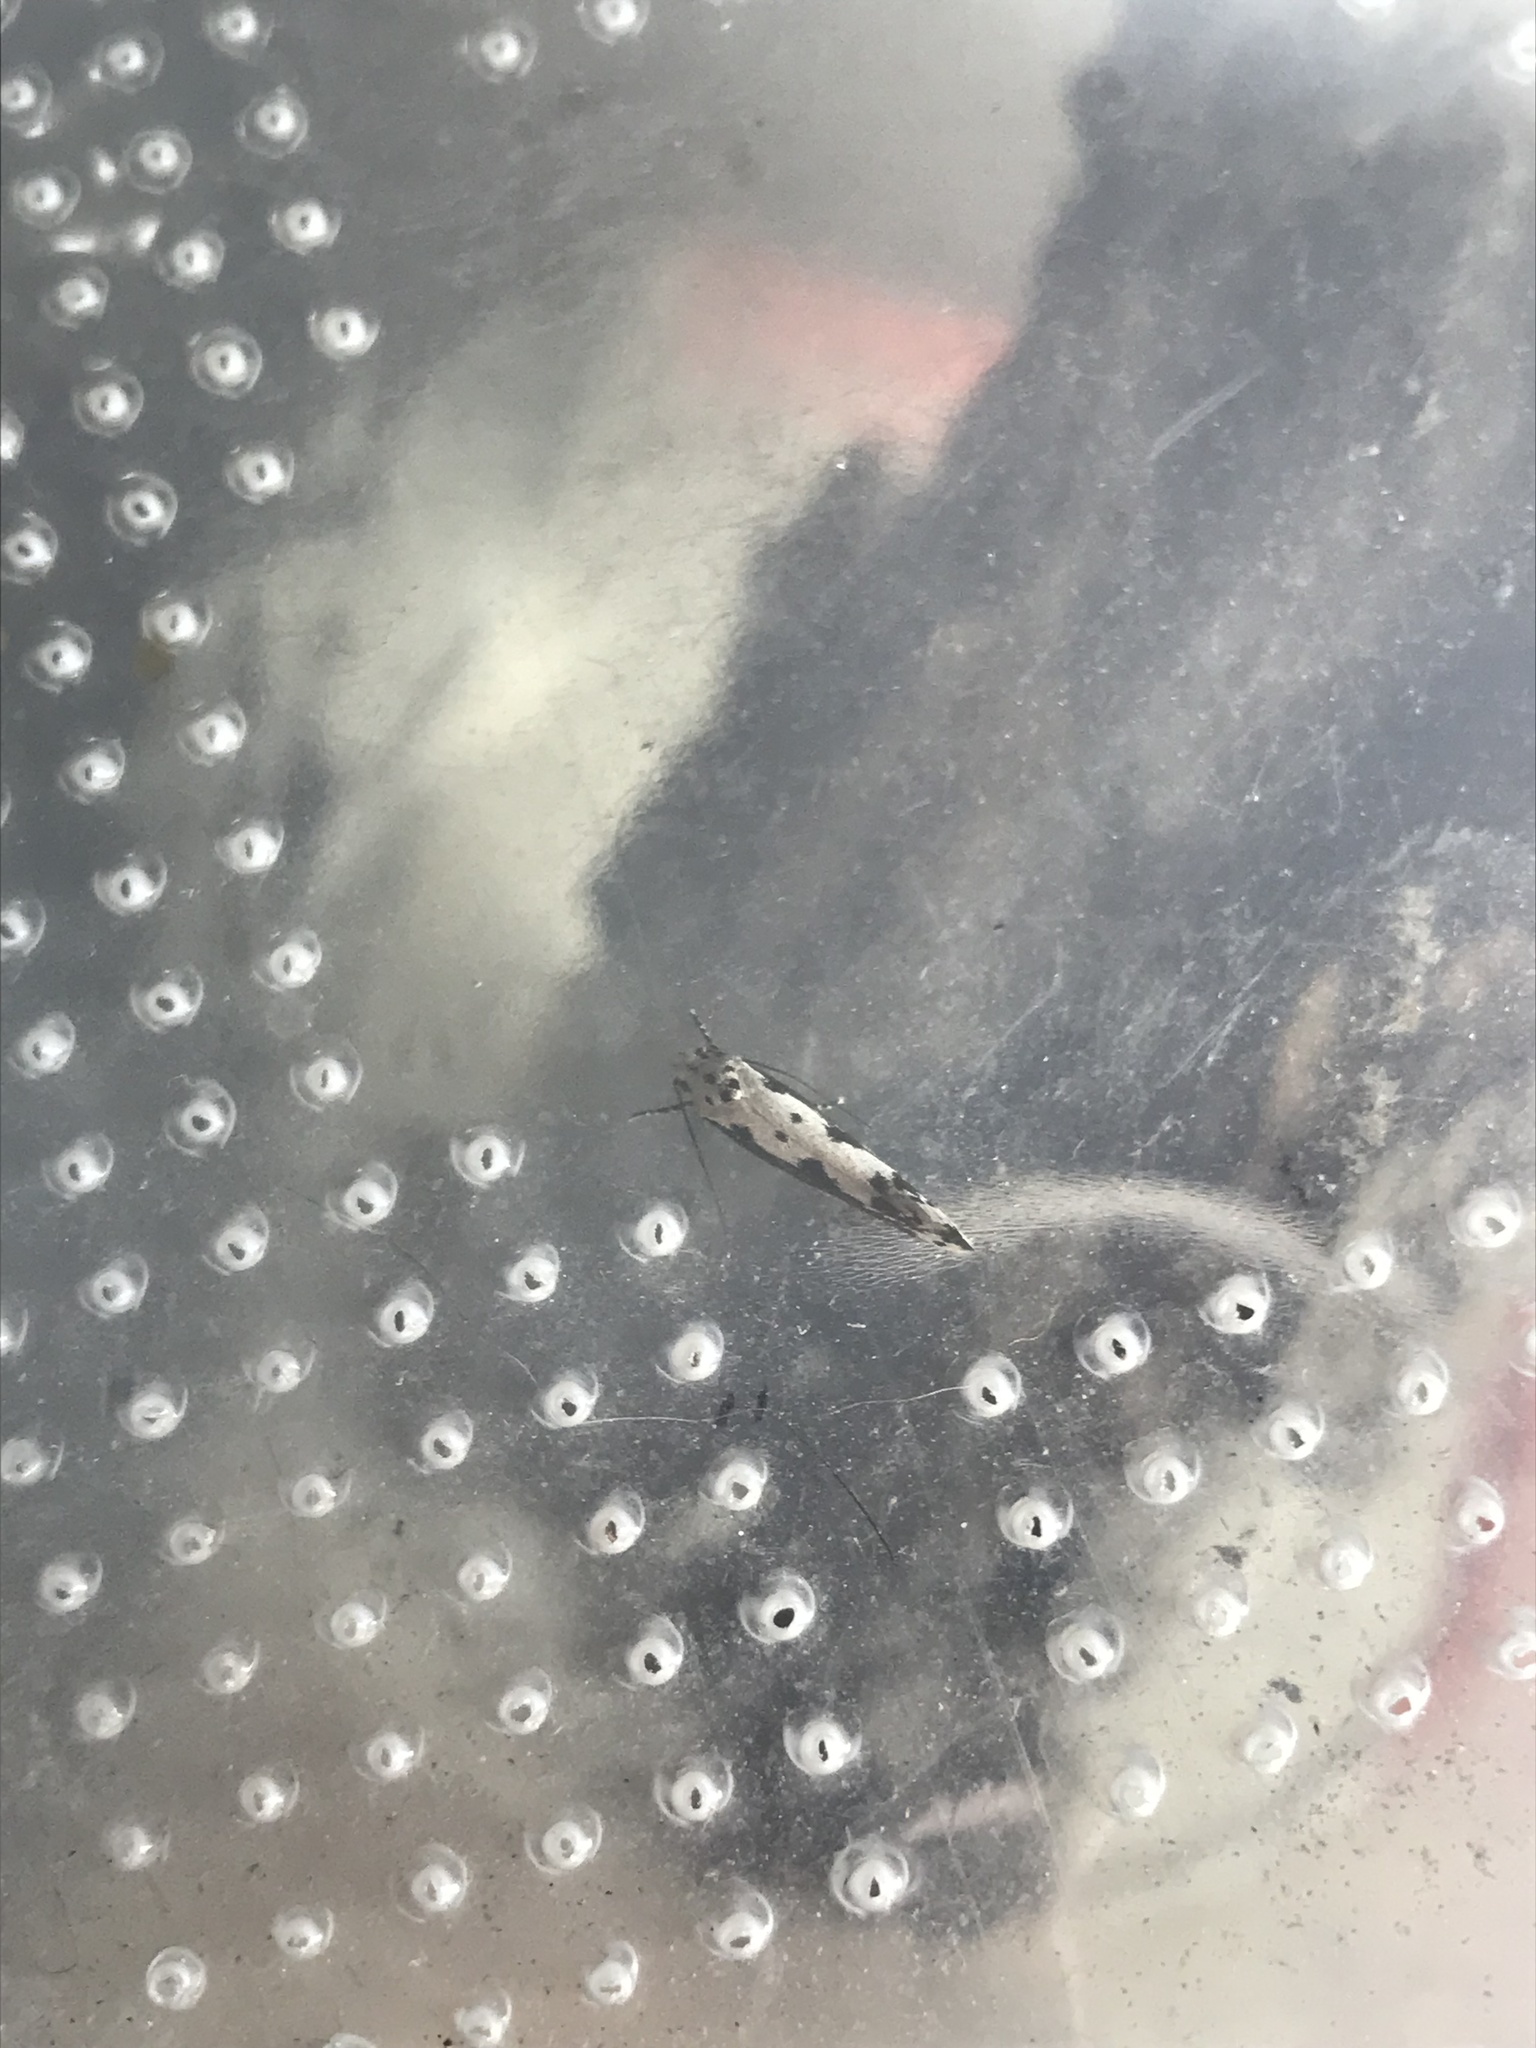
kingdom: Animalia
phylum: Arthropoda
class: Insecta
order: Lepidoptera
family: Ethmiidae
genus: Ethmia
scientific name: Ethmia marmorea
